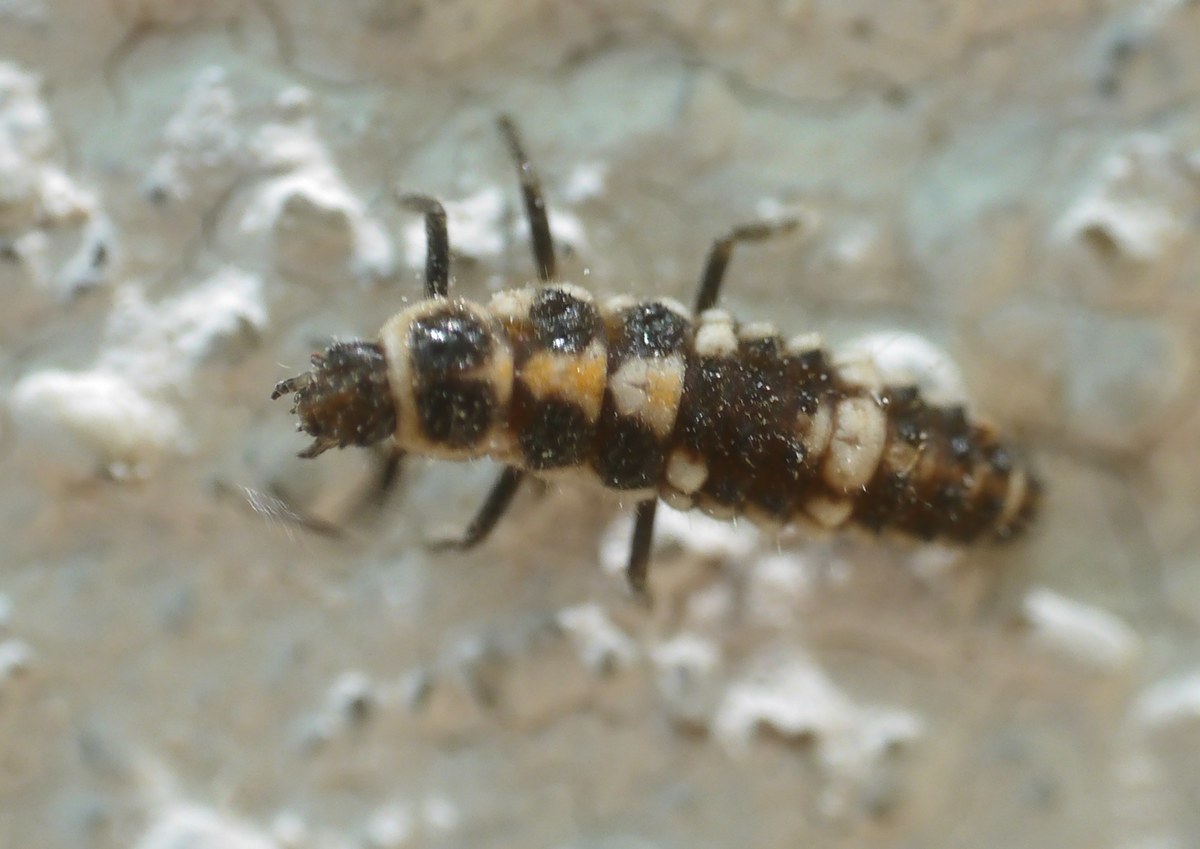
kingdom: Animalia
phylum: Arthropoda
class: Insecta
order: Coleoptera
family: Coccinellidae
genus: Oenopia
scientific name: Oenopia conglobata
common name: Ladybird beetle
